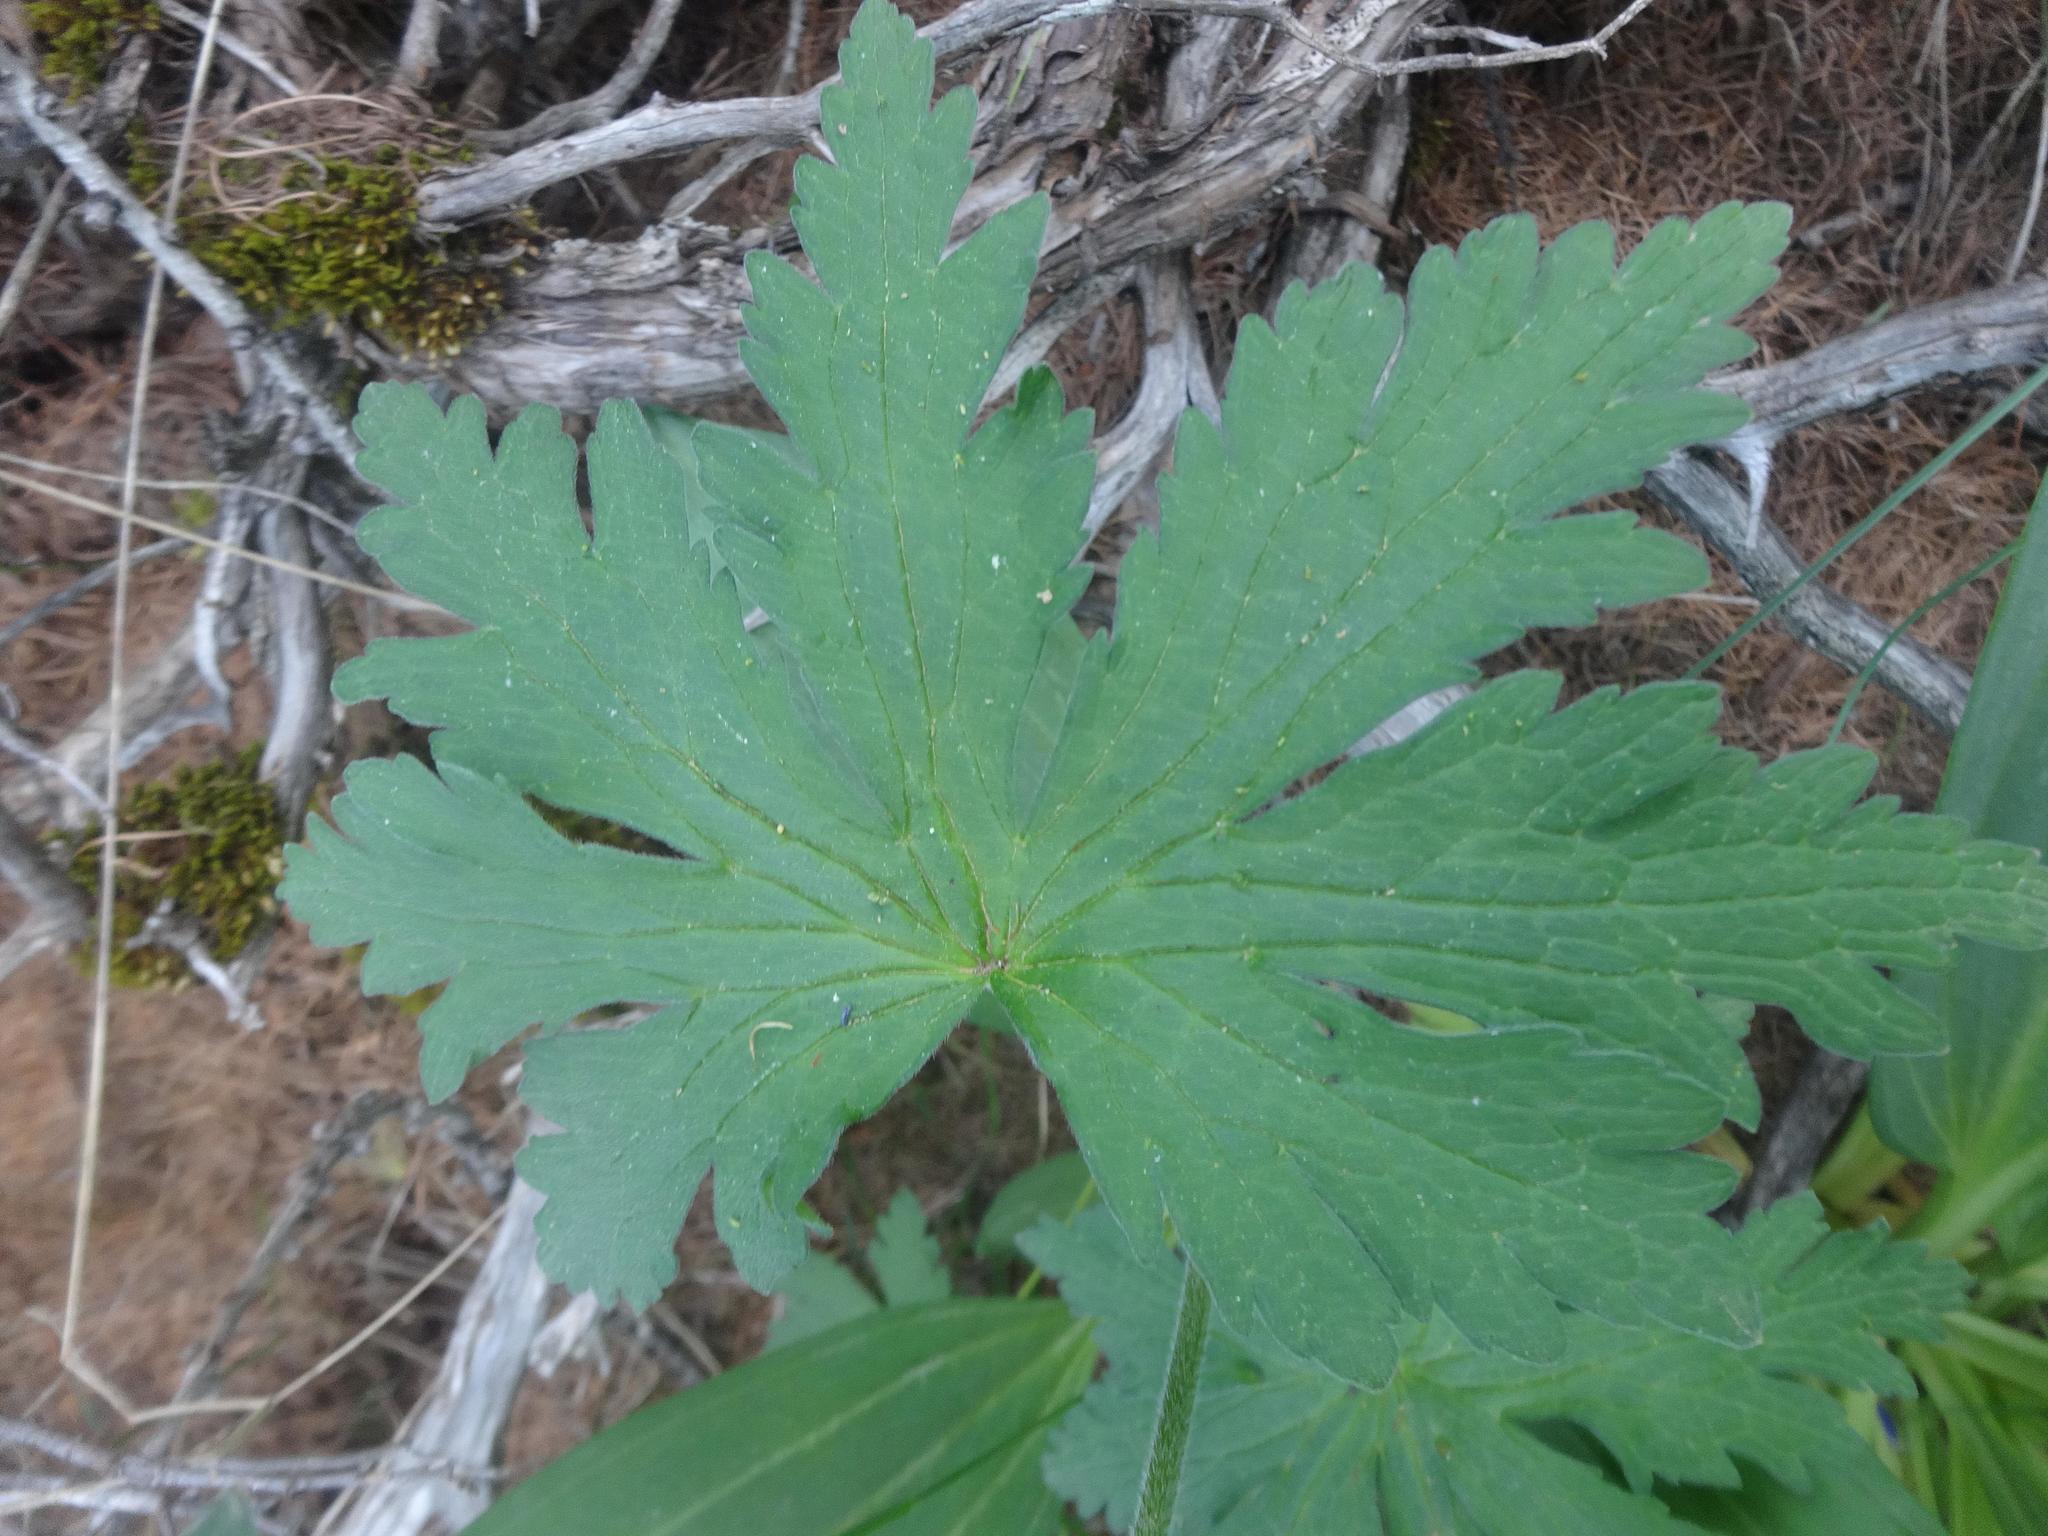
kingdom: Plantae
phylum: Tracheophyta
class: Magnoliopsida
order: Geraniales
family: Geraniaceae
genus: Geranium
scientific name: Geranium sylvaticum
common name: Wood crane's-bill
